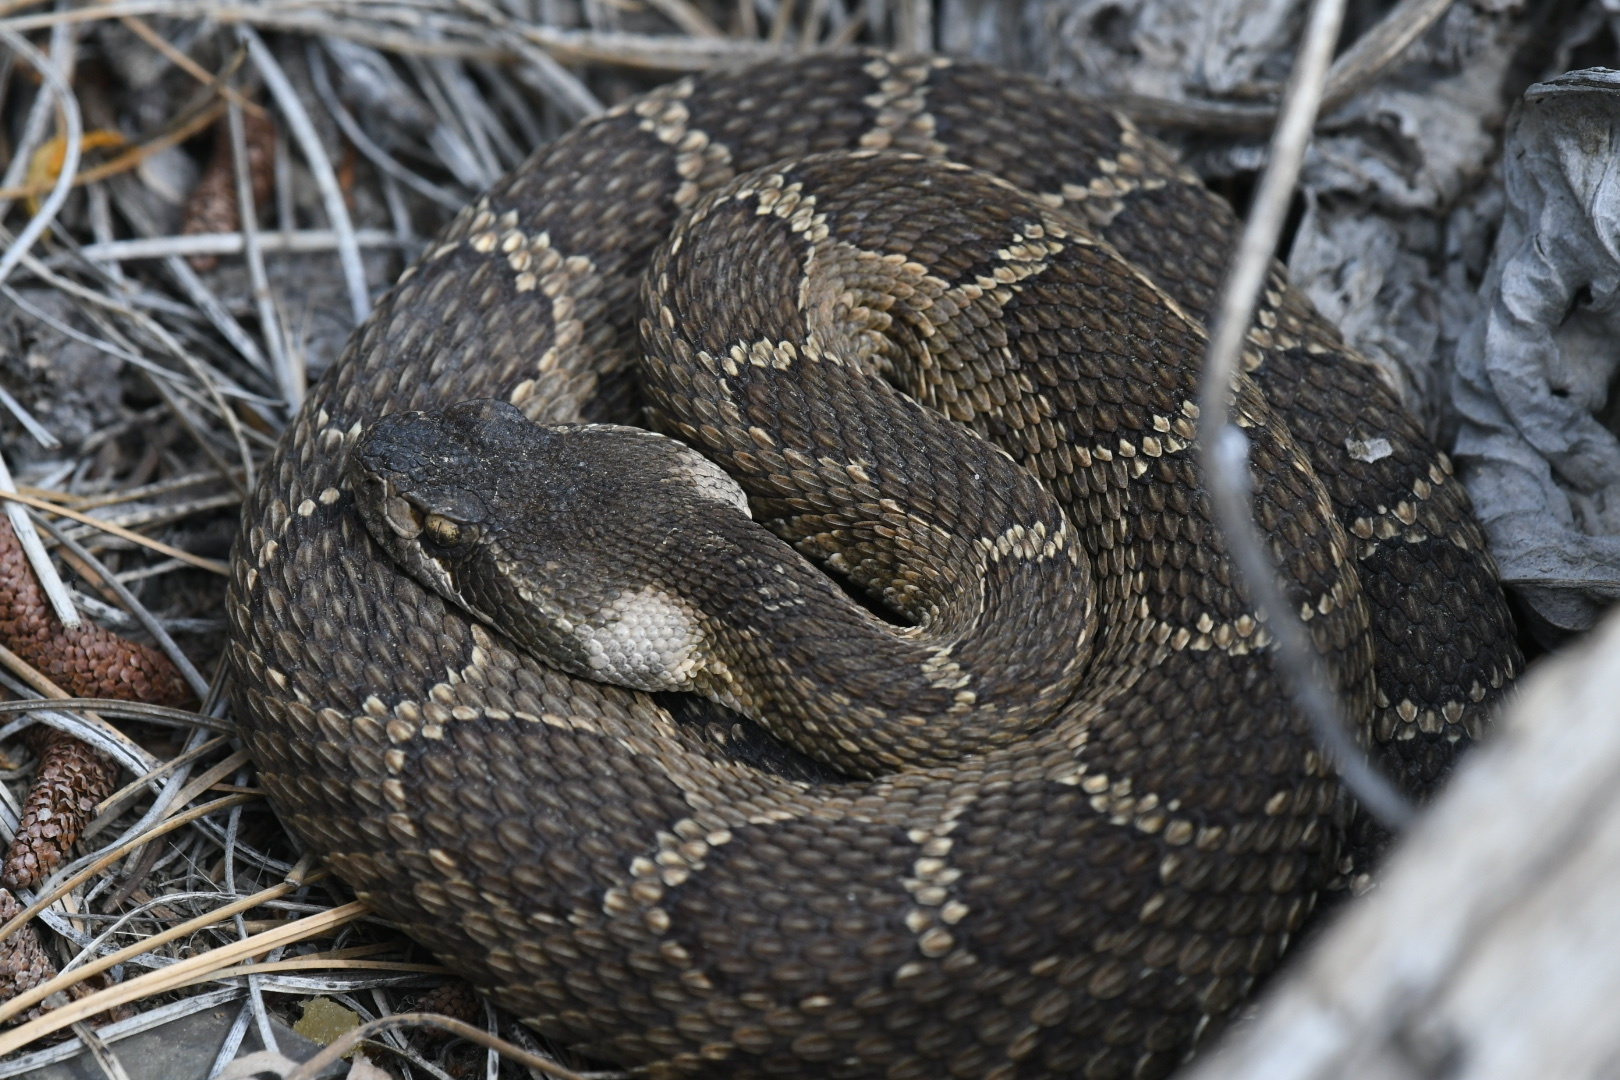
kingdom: Animalia
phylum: Chordata
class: Squamata
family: Viperidae
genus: Crotalus
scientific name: Crotalus oreganus
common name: Abyssus
